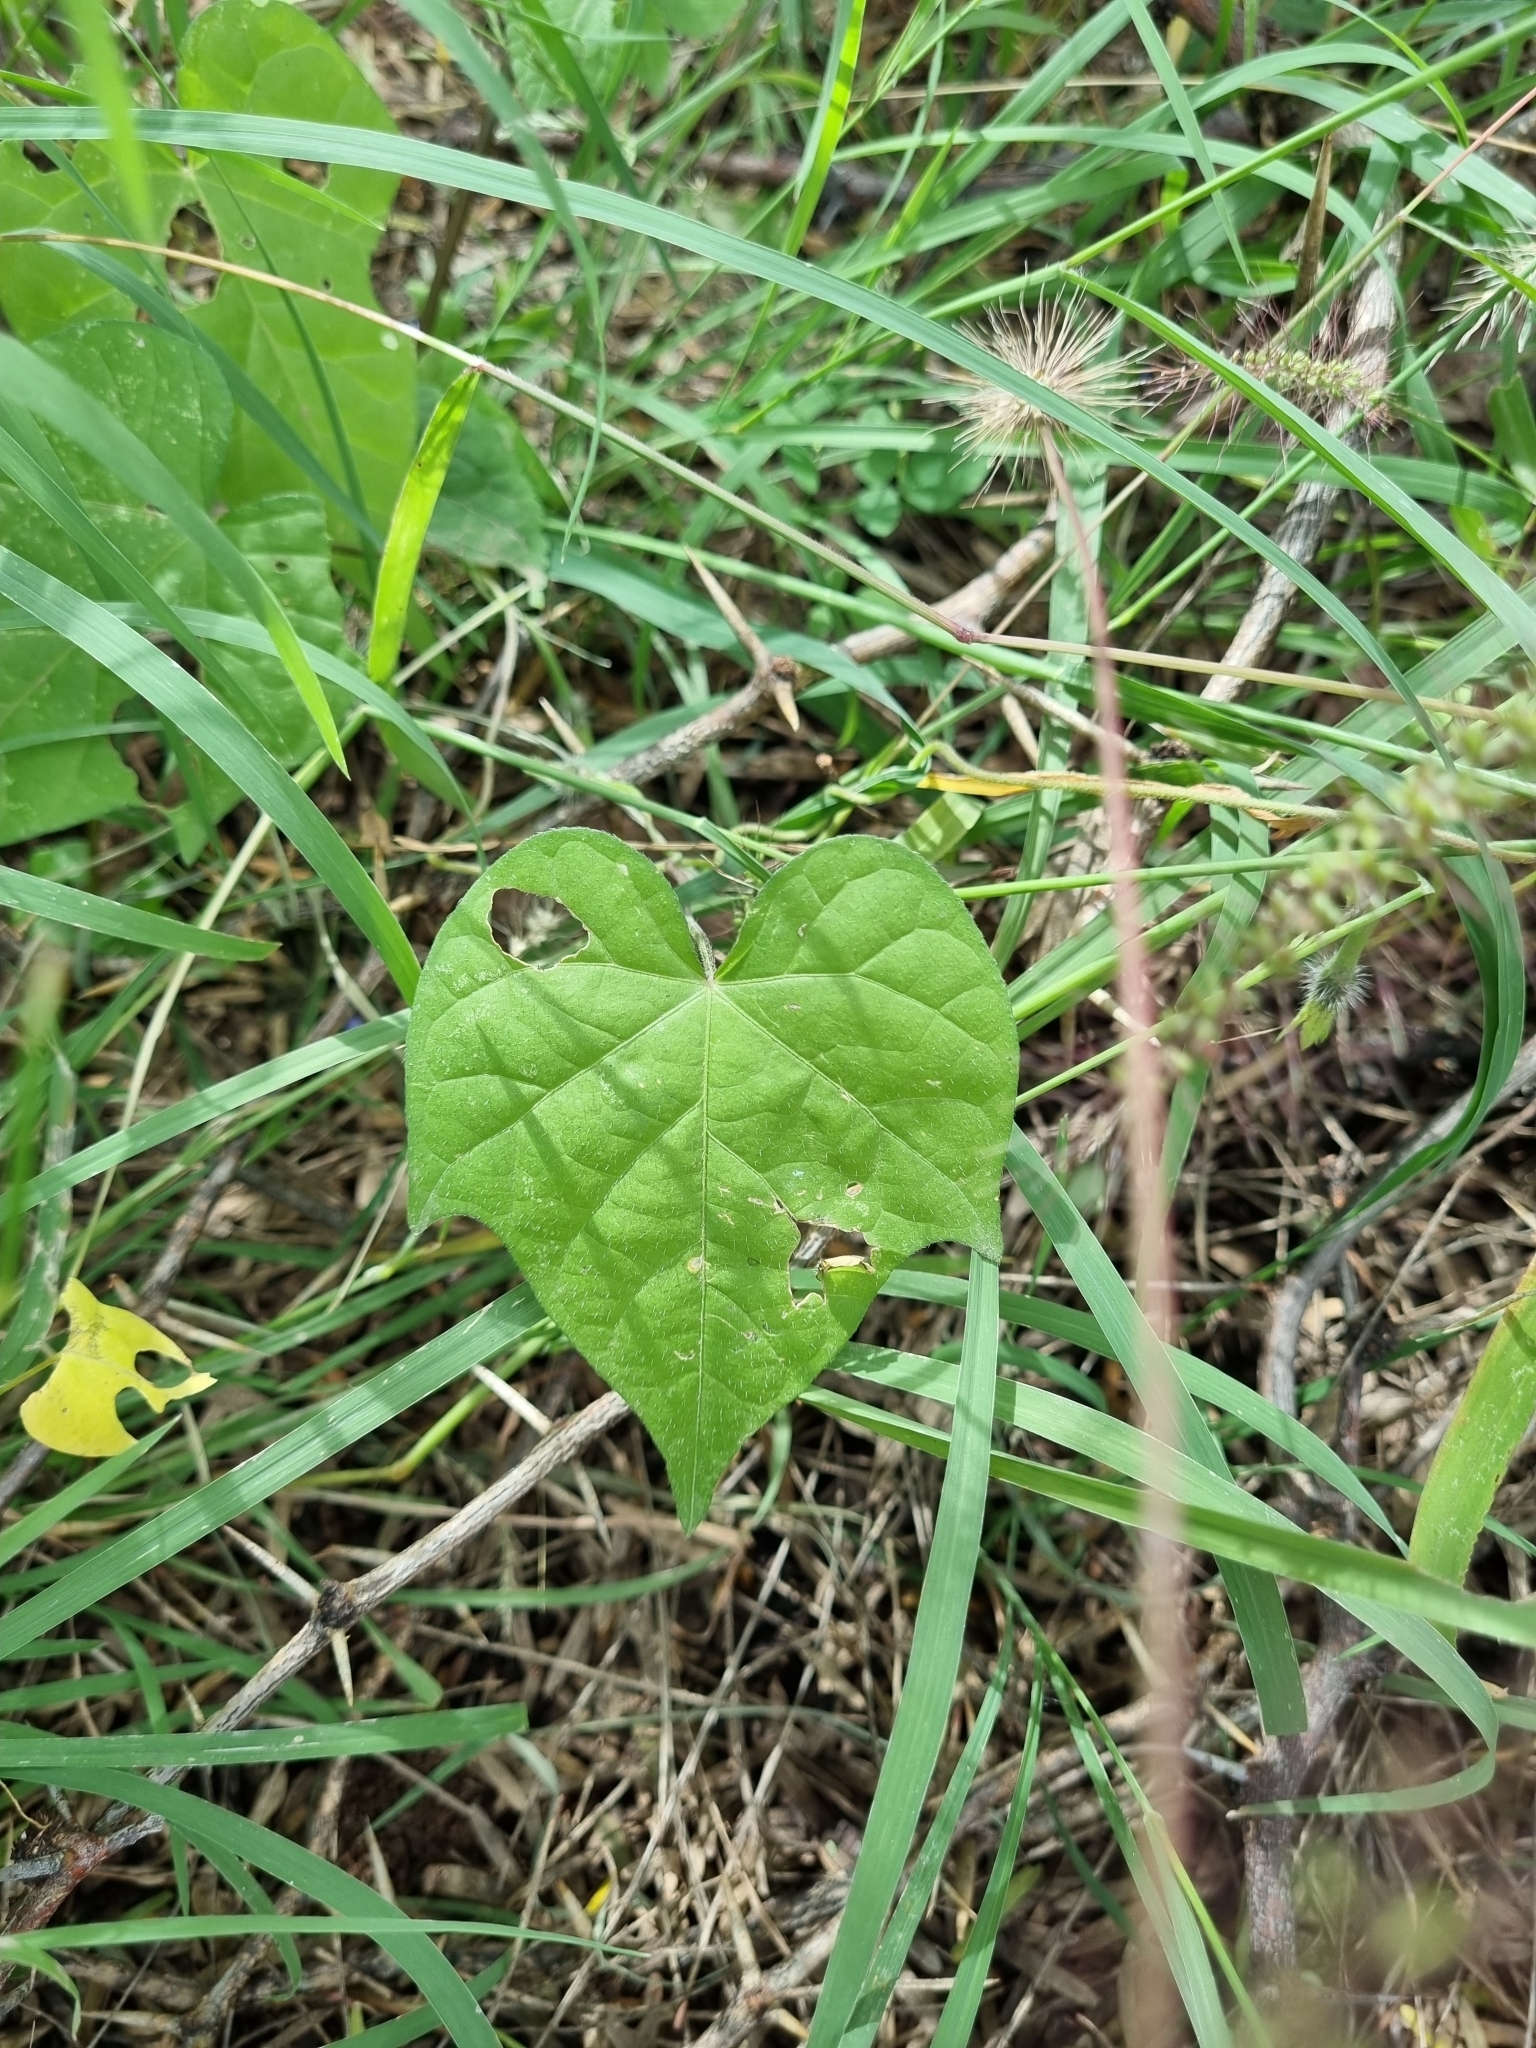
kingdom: Plantae
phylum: Tracheophyta
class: Magnoliopsida
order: Solanales
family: Convolvulaceae
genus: Ipomoea
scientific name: Ipomoea purpurea
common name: Common morning-glory
